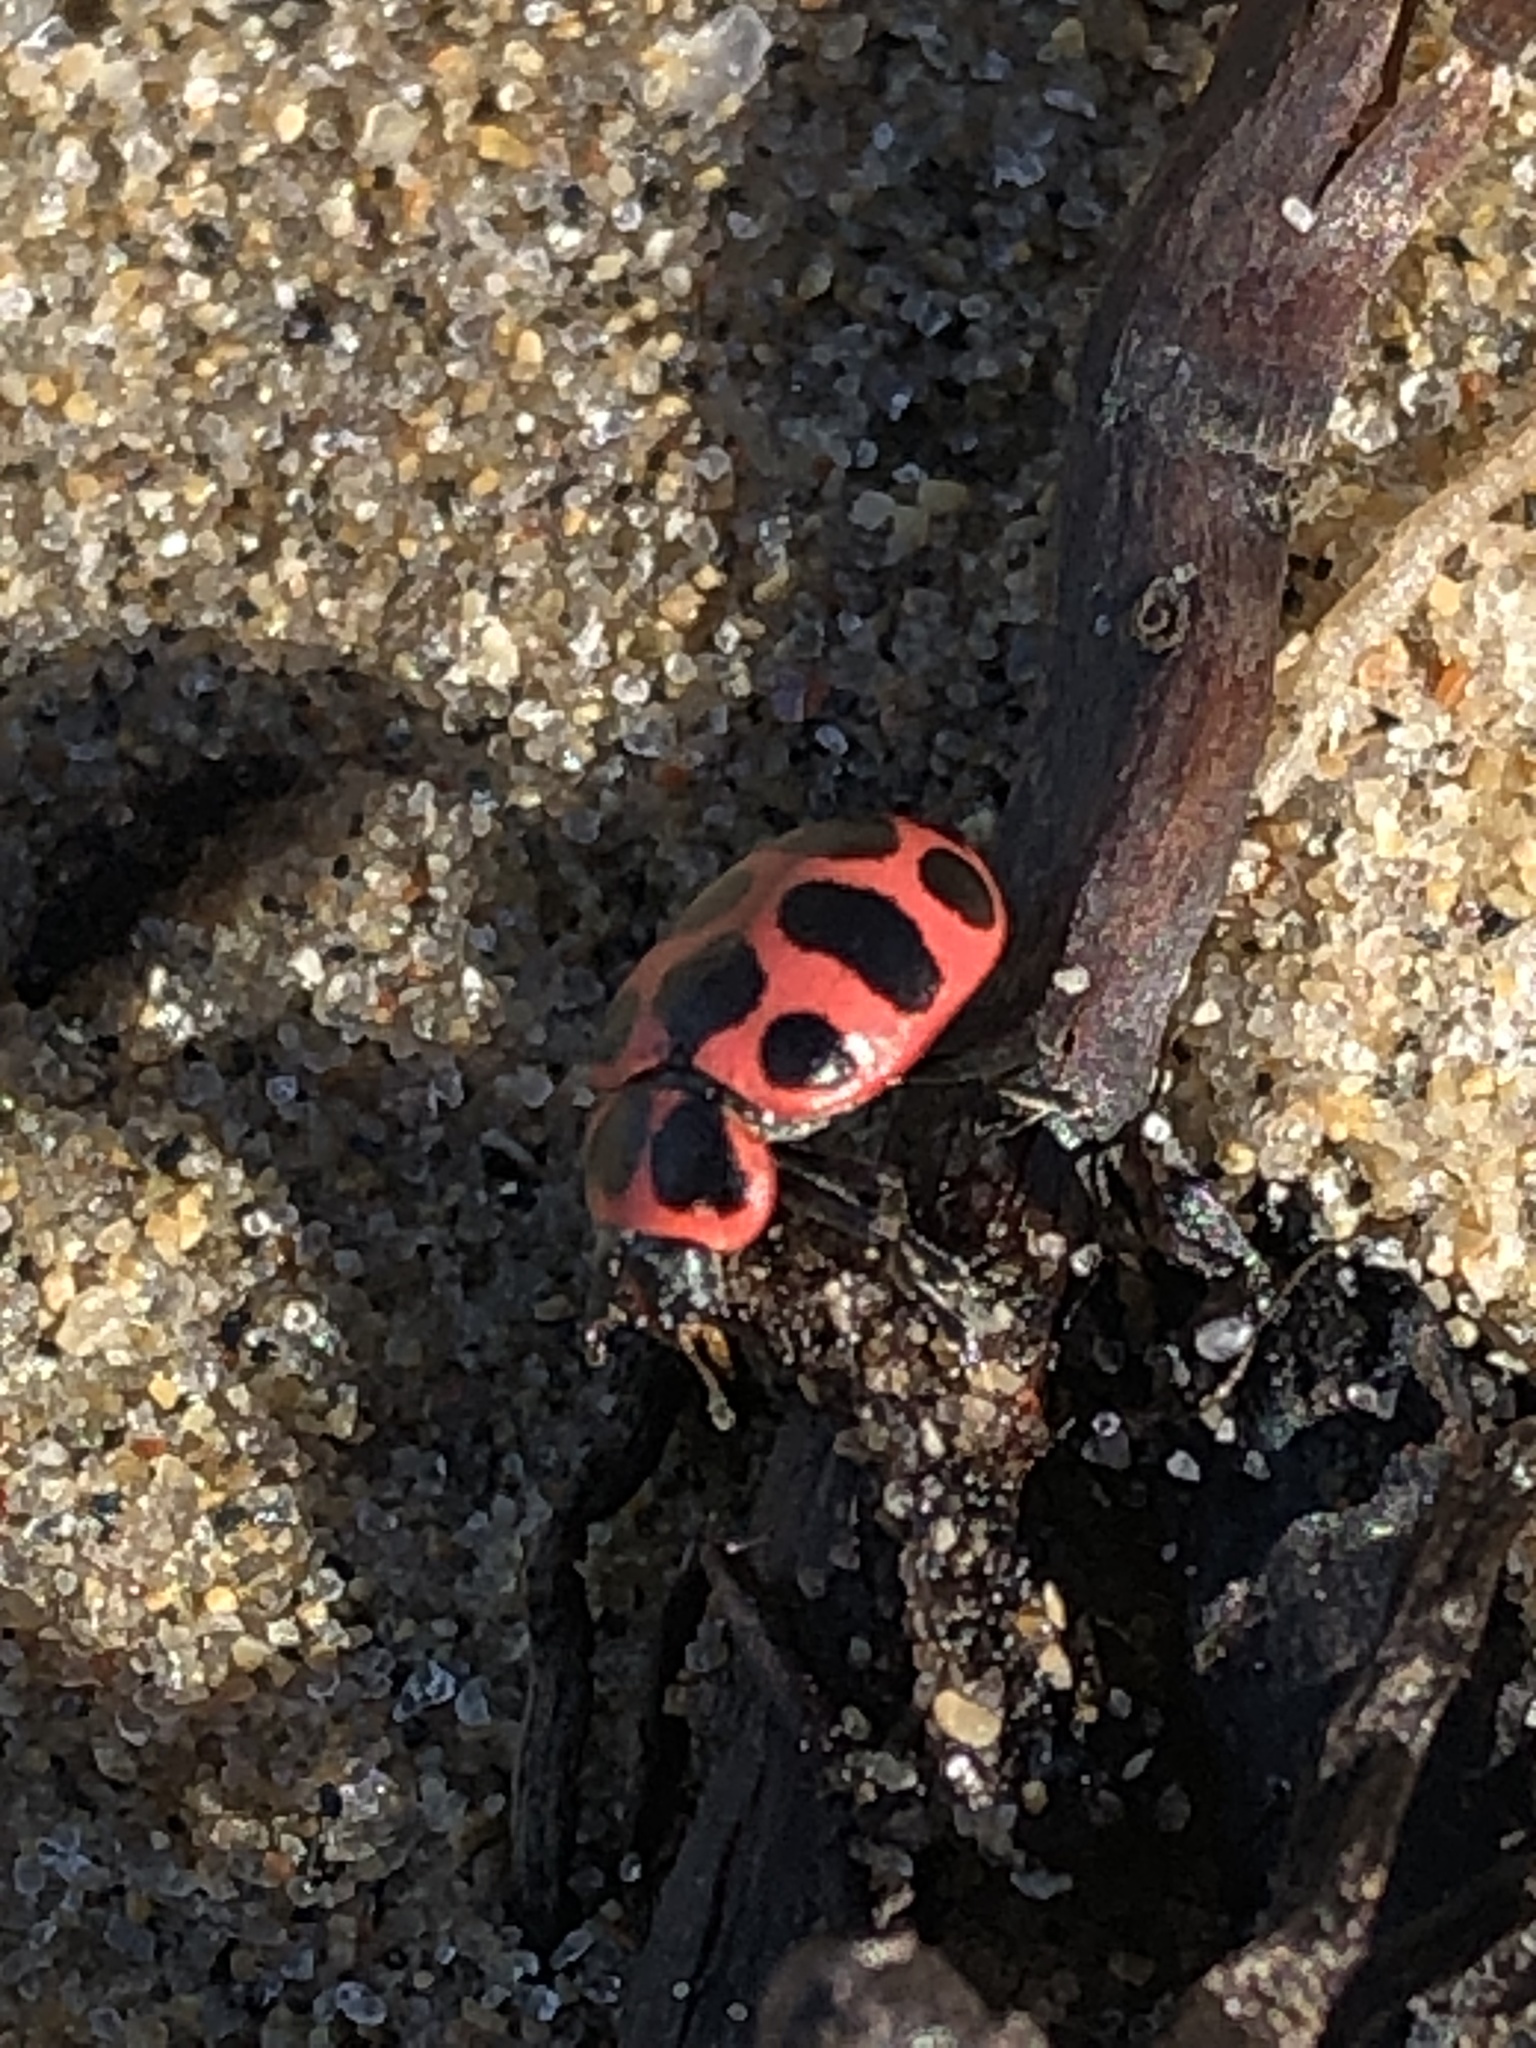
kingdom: Animalia
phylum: Arthropoda
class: Insecta
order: Coleoptera
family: Coccinellidae
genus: Coleomegilla
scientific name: Coleomegilla maculata
